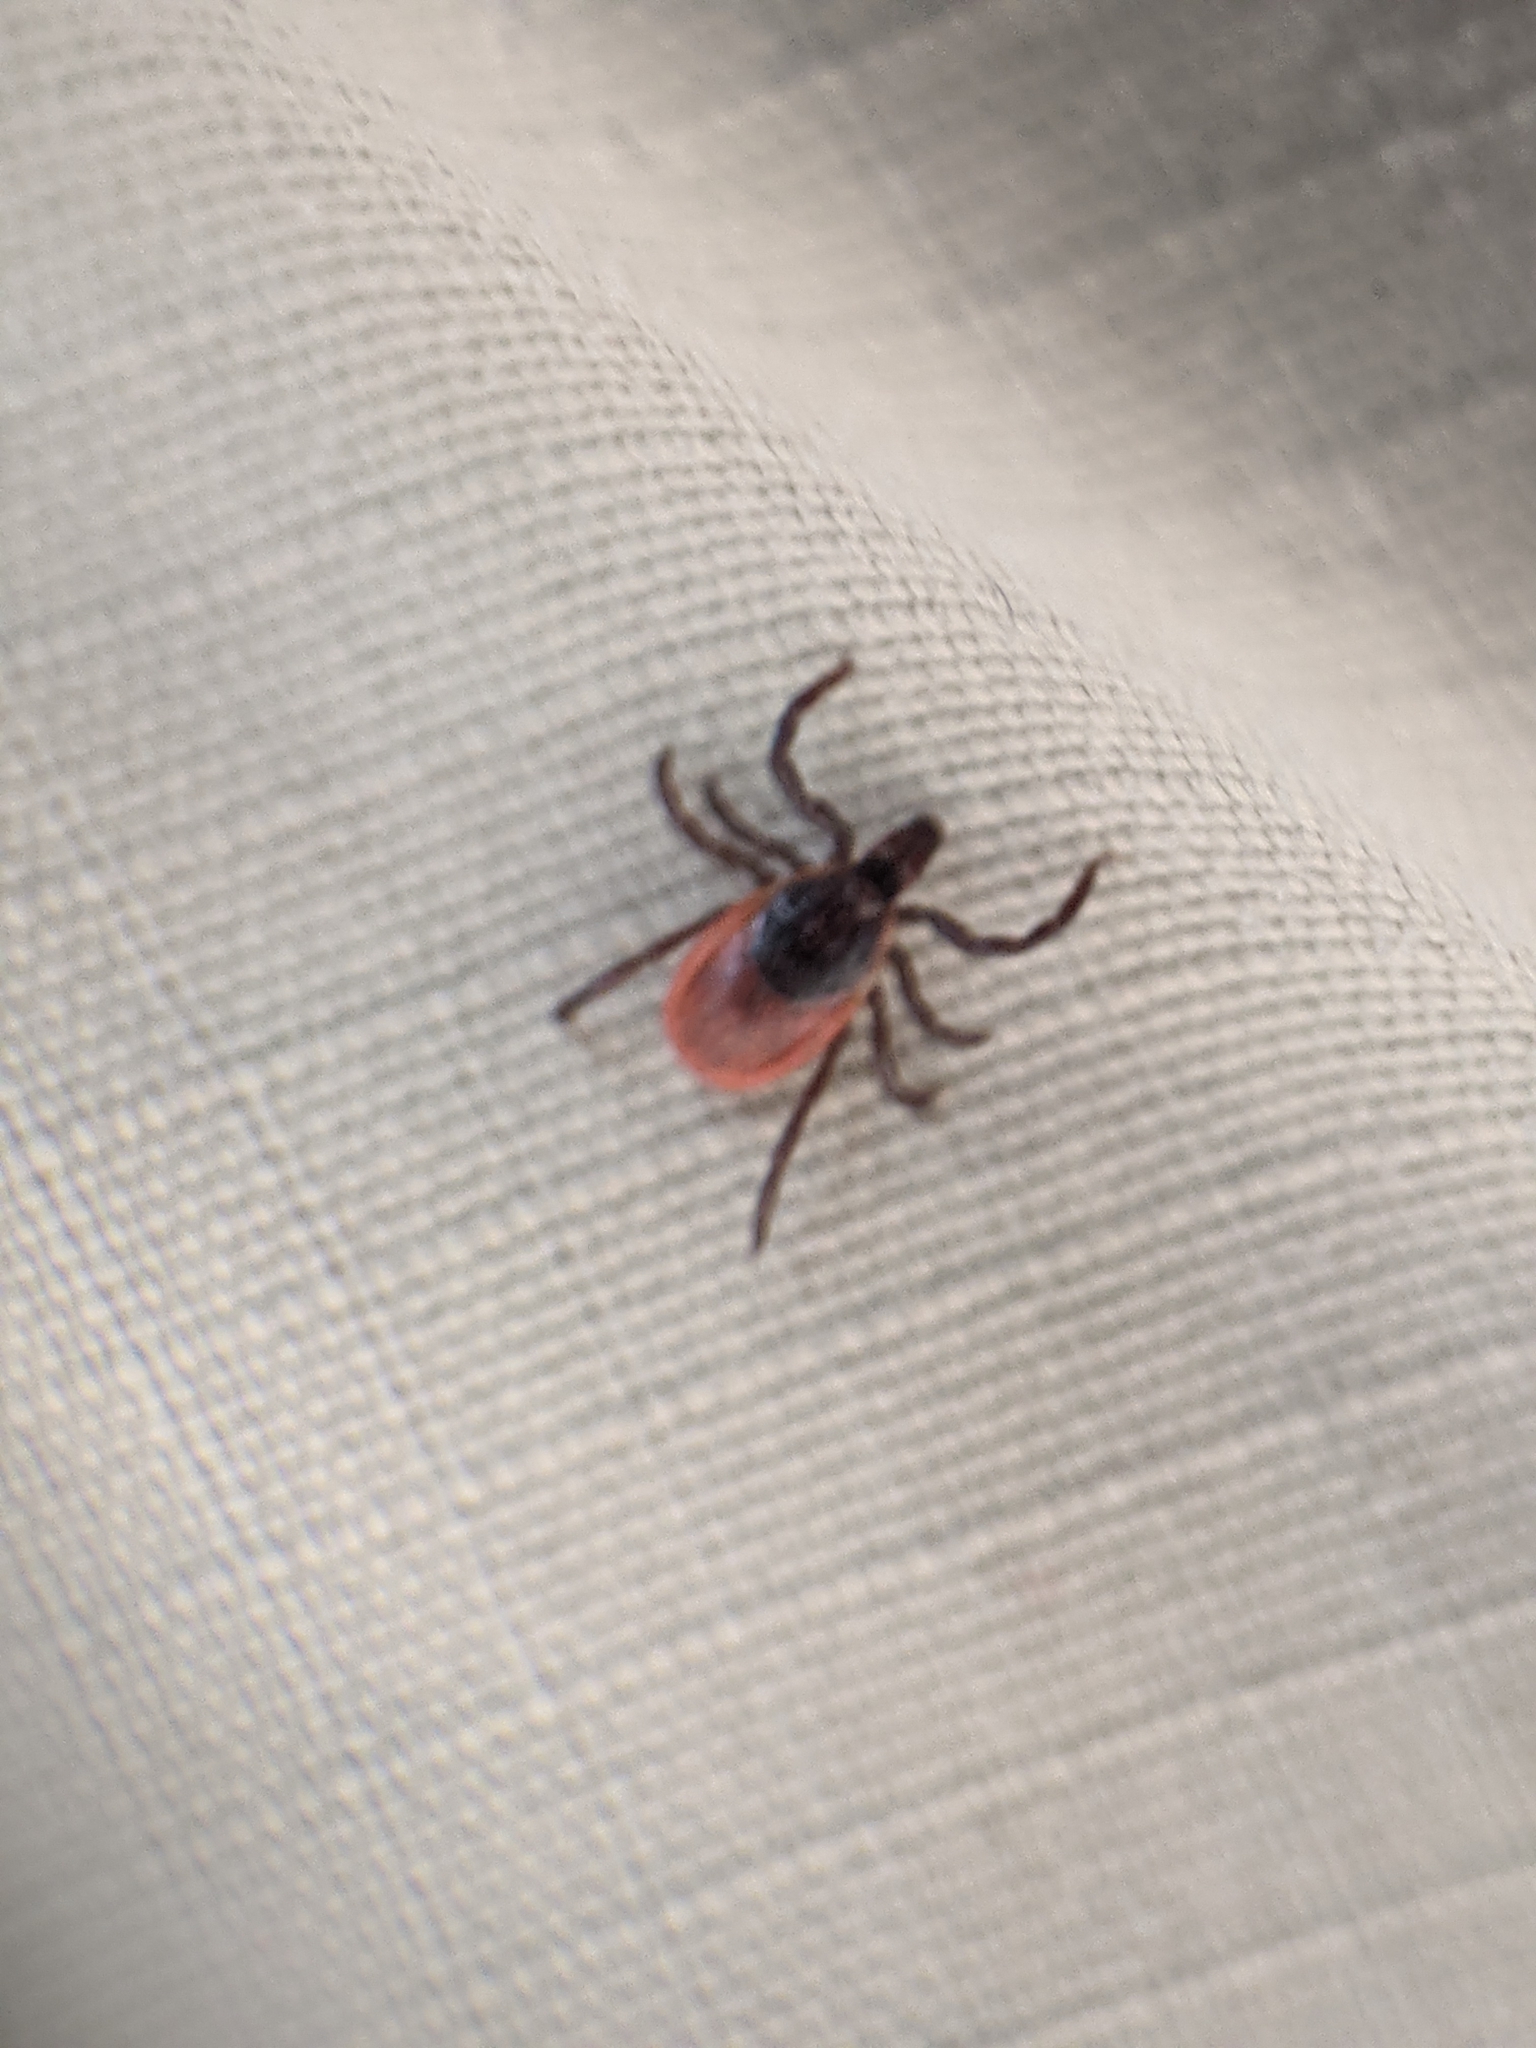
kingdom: Animalia
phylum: Arthropoda
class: Arachnida
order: Ixodida
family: Ixodidae
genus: Ixodes
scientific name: Ixodes scapularis
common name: Black legged tick
